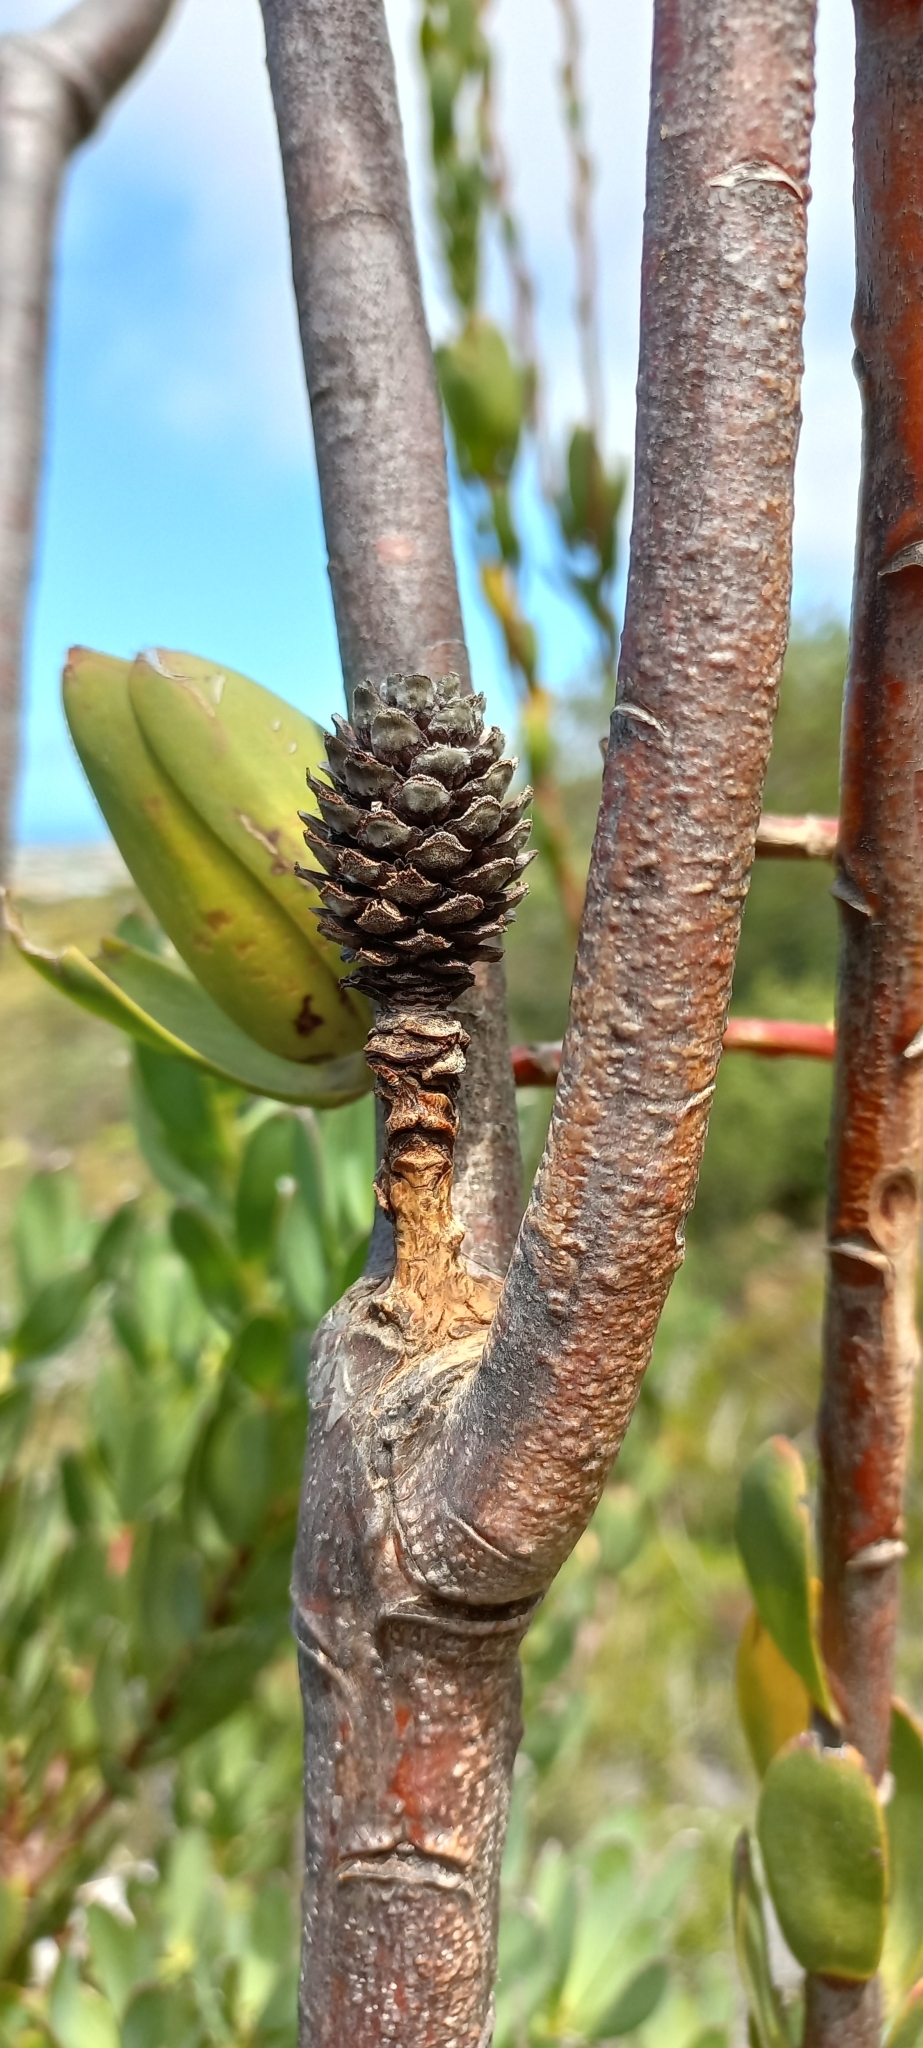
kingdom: Plantae
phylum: Tracheophyta
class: Magnoliopsida
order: Proteales
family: Proteaceae
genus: Leucadendron
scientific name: Leucadendron discolor
